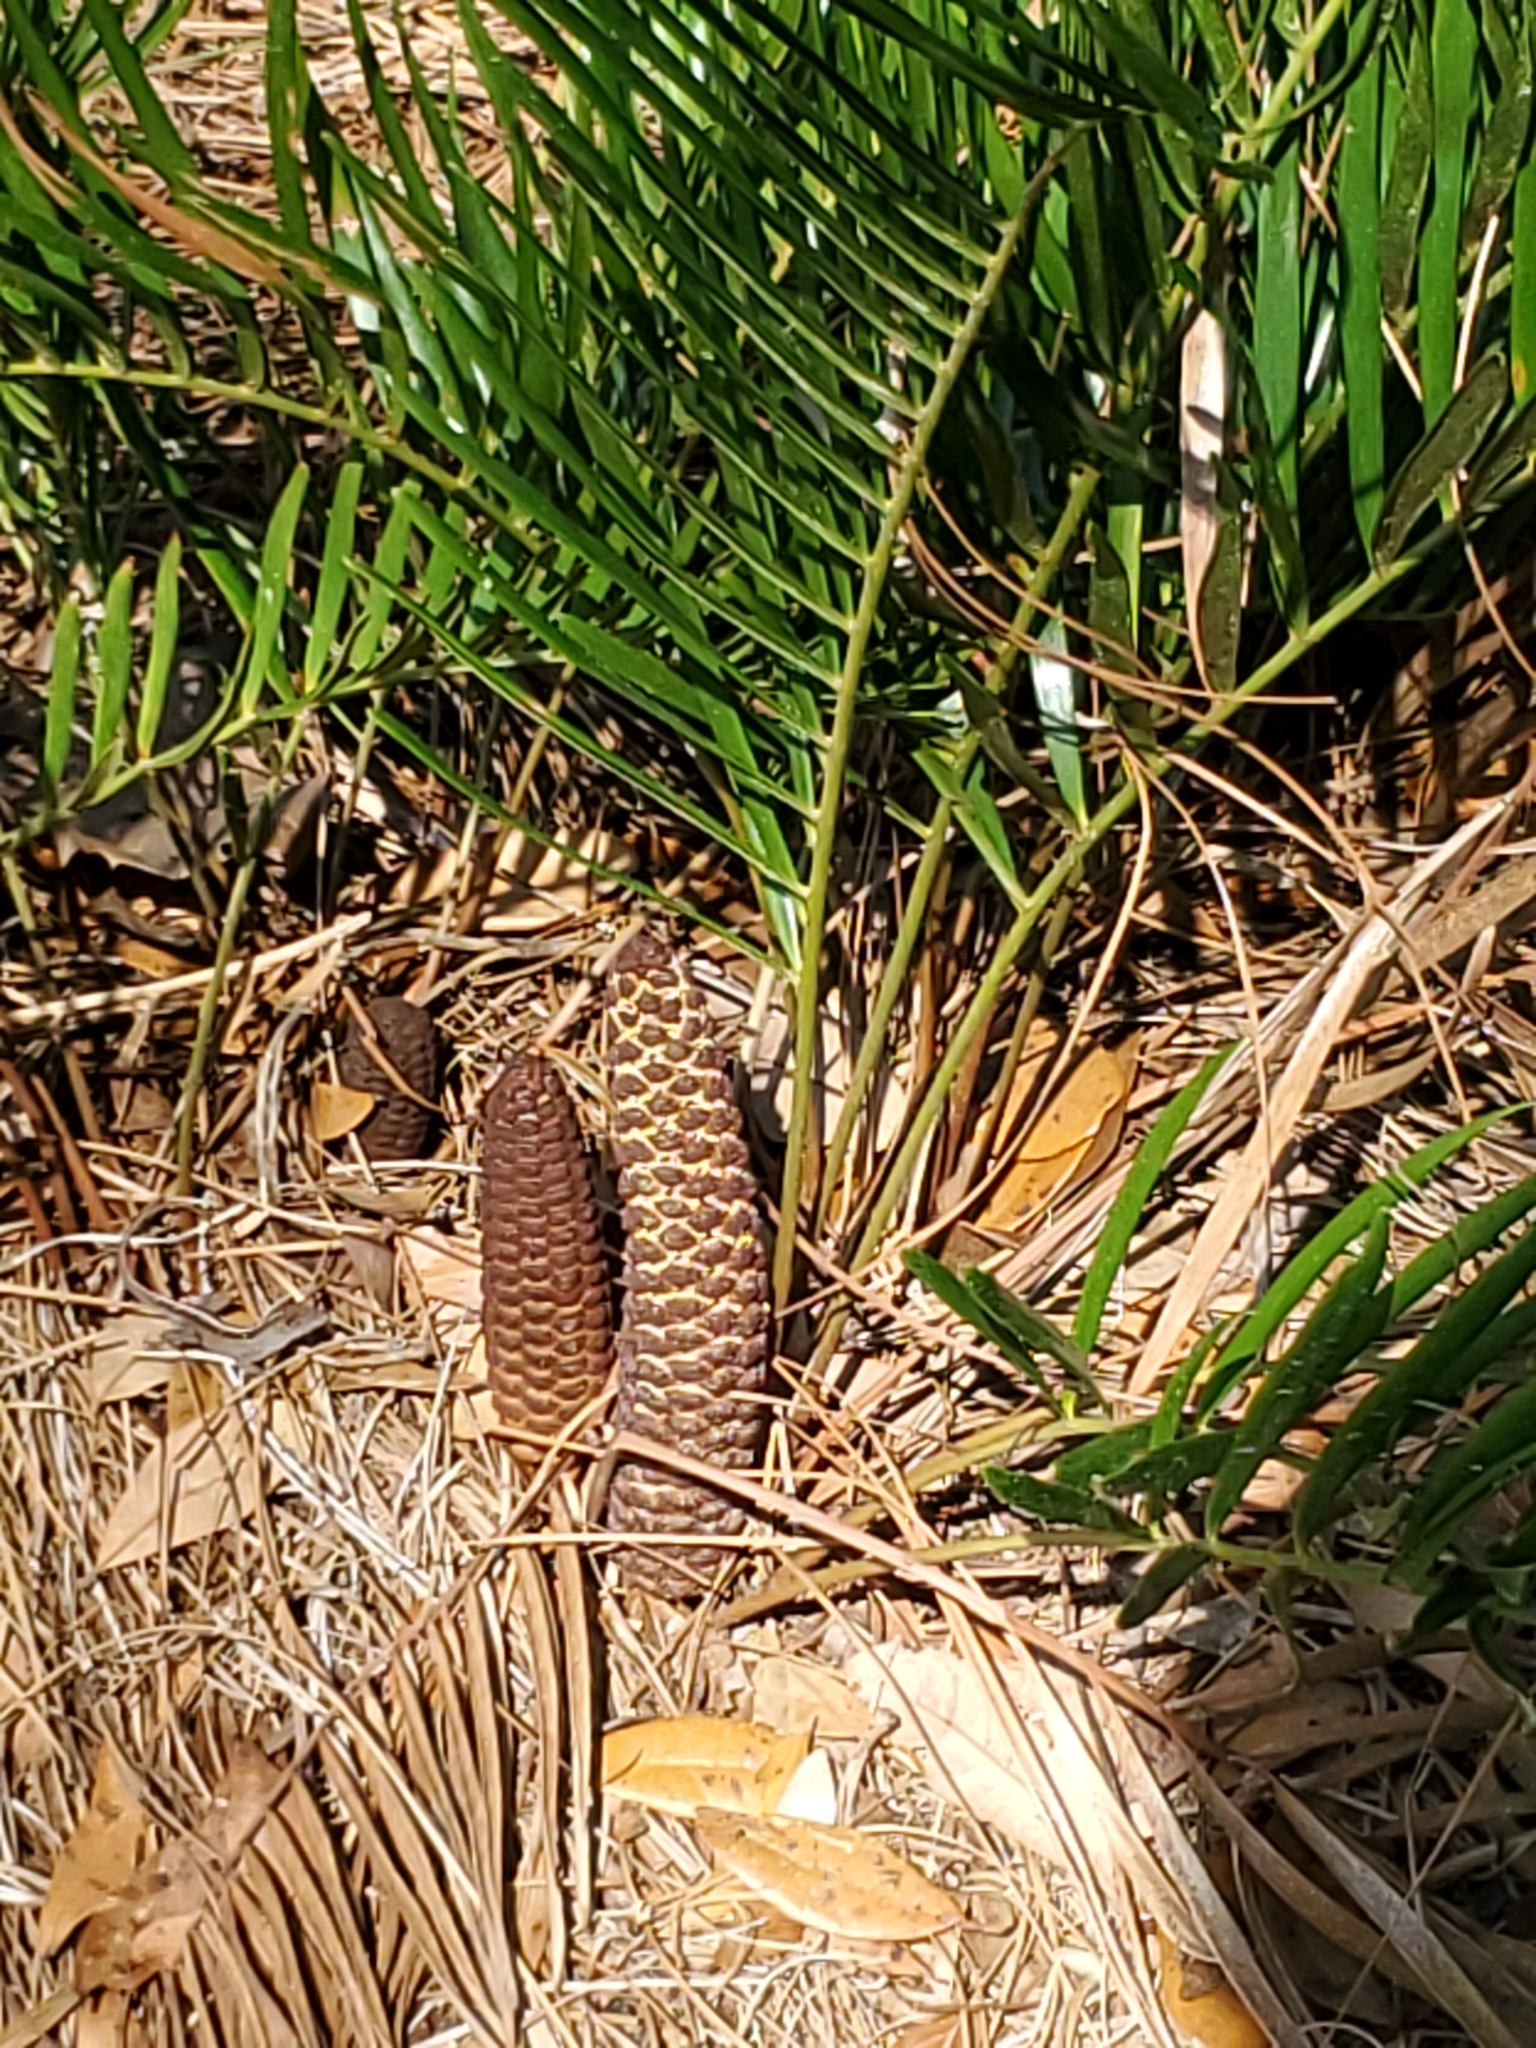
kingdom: Plantae
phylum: Tracheophyta
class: Cycadopsida
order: Cycadales
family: Zamiaceae
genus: Zamia
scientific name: Zamia integrifolia
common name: Florida arrowroot
